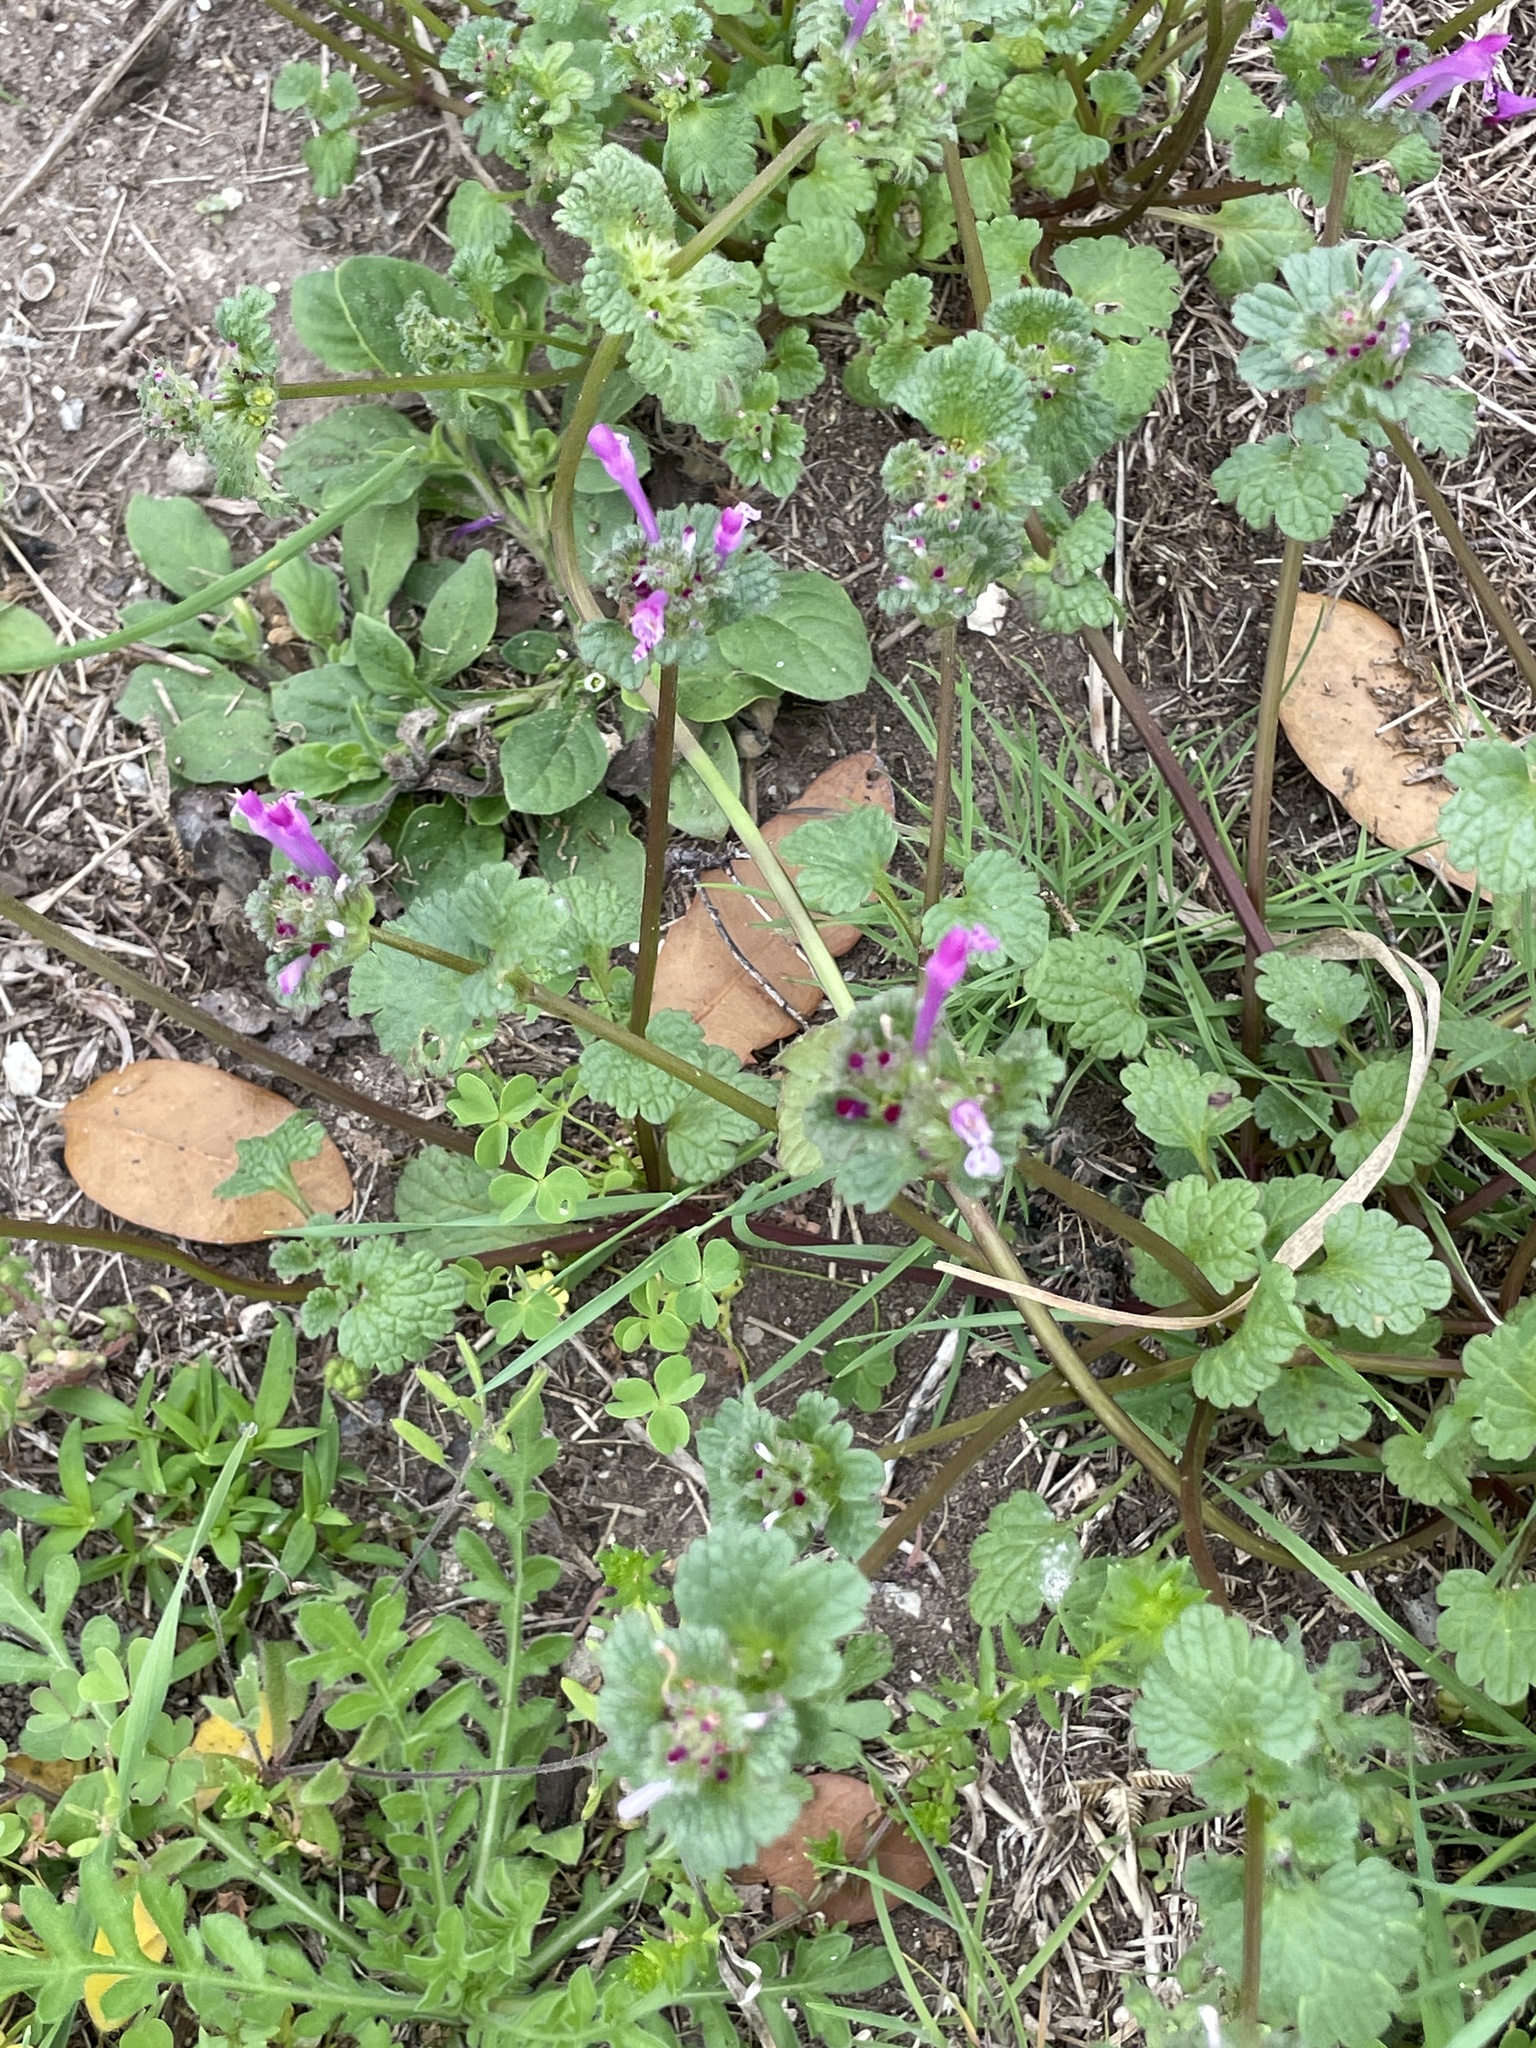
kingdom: Plantae
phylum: Tracheophyta
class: Magnoliopsida
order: Lamiales
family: Lamiaceae
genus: Lamium
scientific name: Lamium amplexicaule
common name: Henbit dead-nettle
